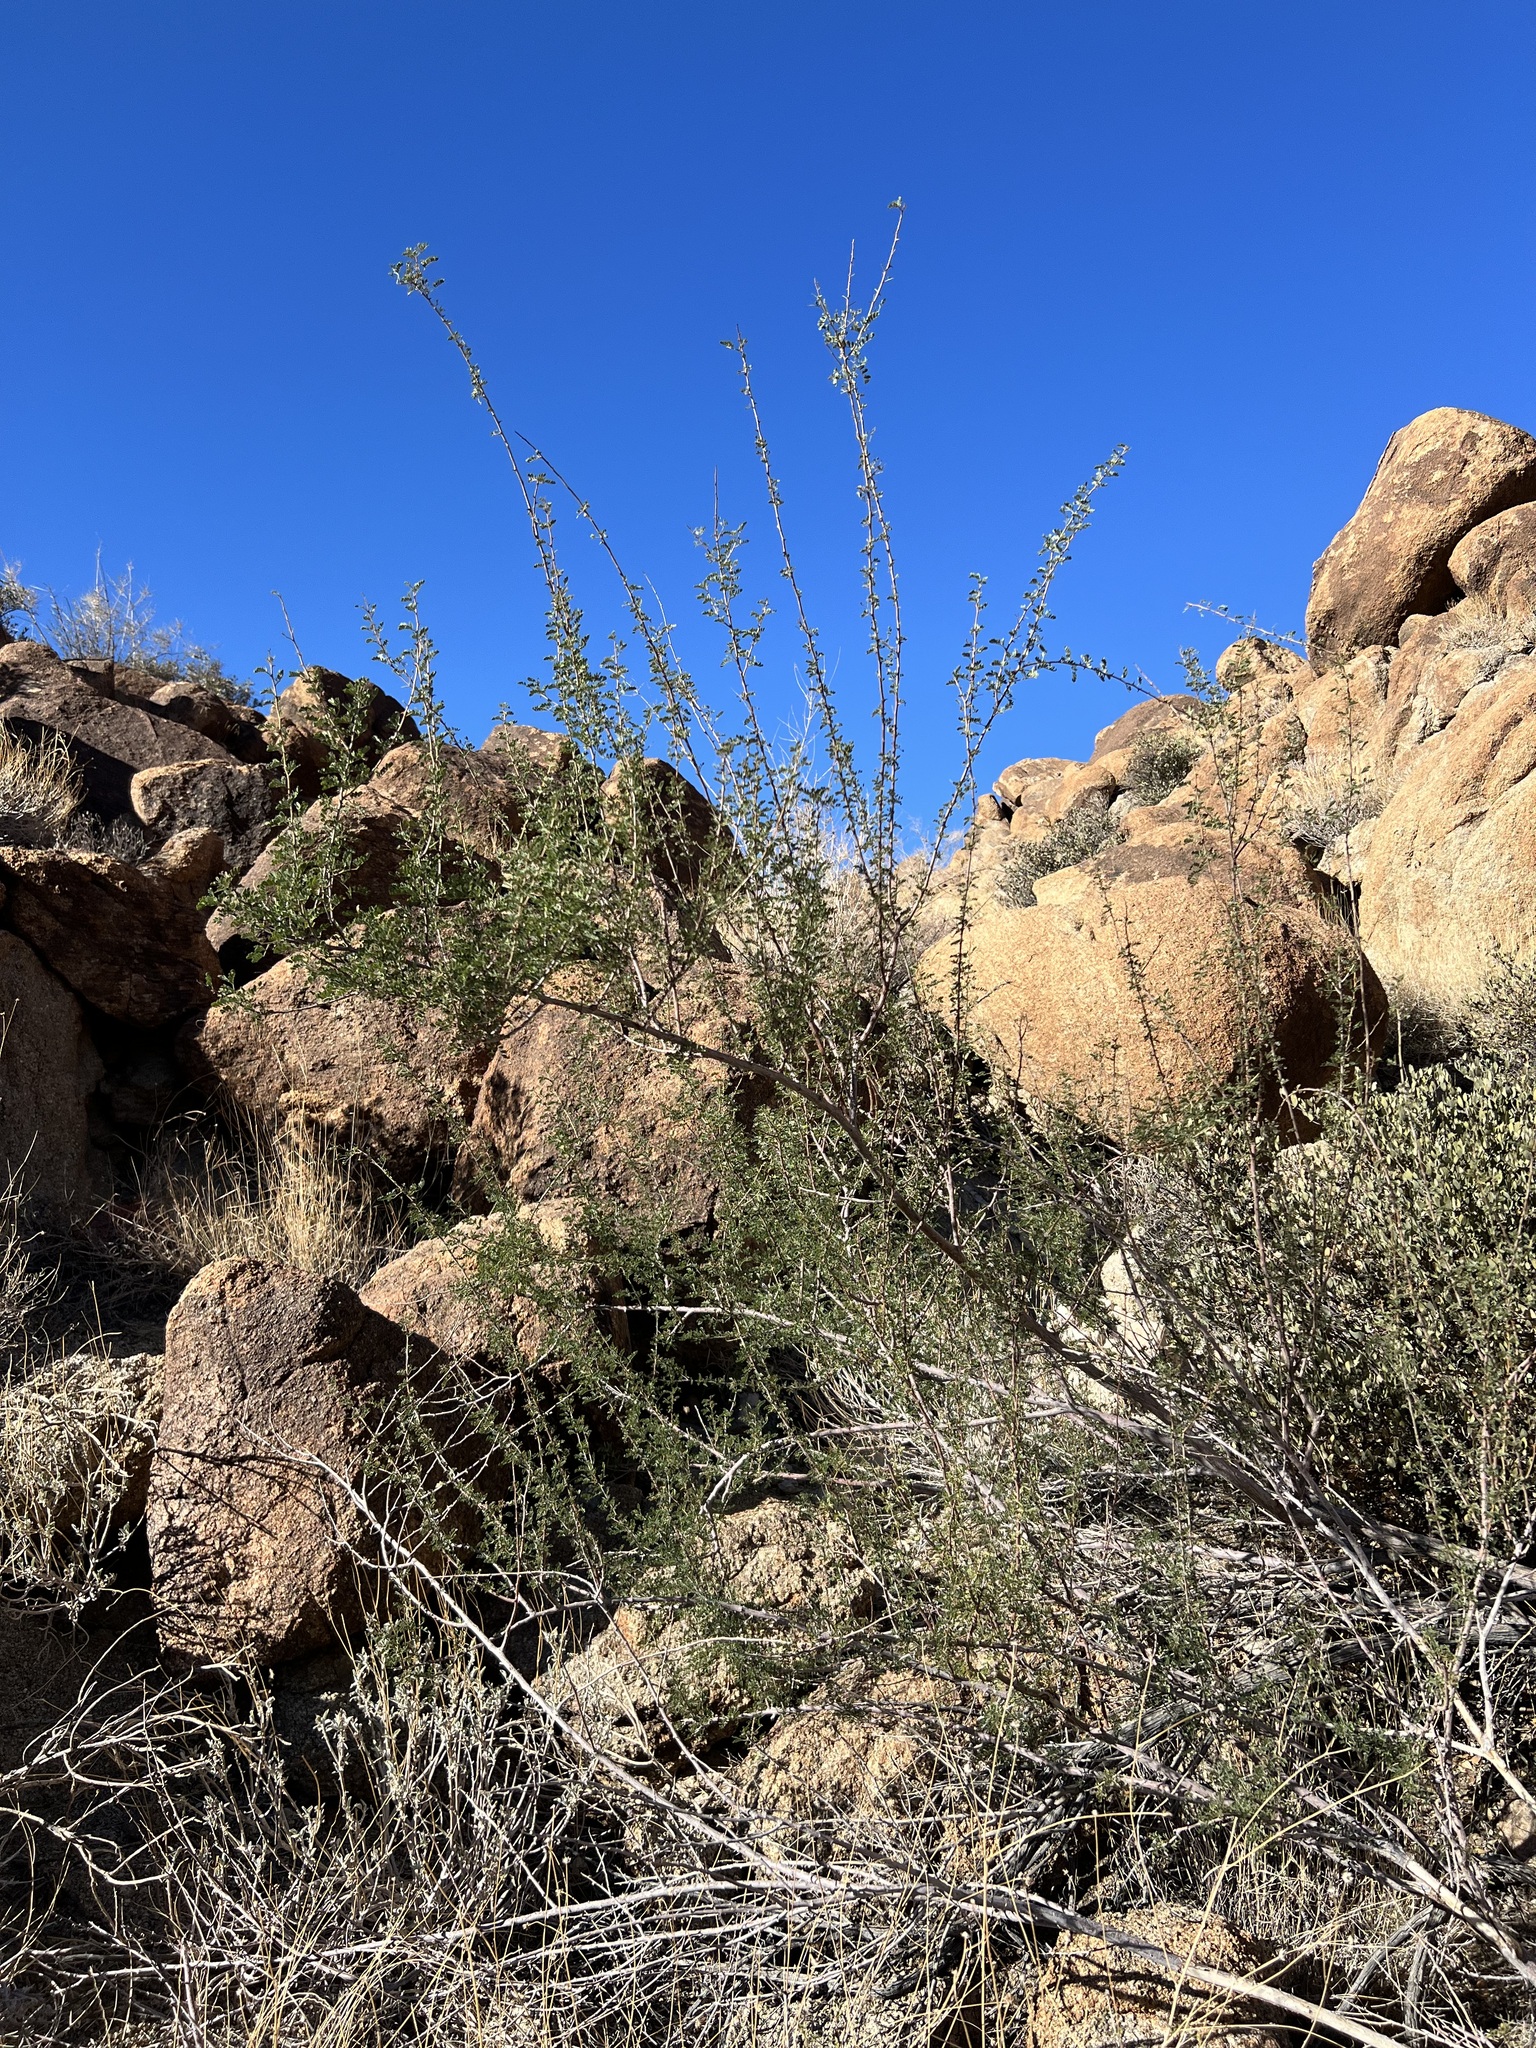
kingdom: Plantae
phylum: Tracheophyta
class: Magnoliopsida
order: Fabales
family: Fabaceae
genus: Senegalia
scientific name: Senegalia greggii
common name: Texas-mimosa
